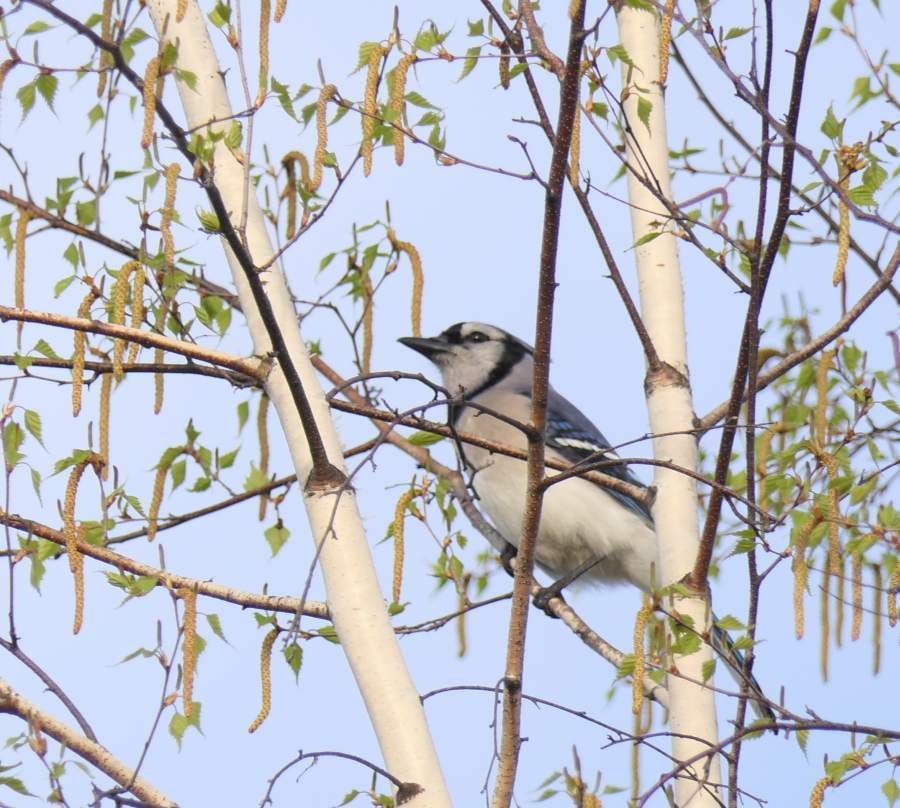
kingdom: Animalia
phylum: Chordata
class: Aves
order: Passeriformes
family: Corvidae
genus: Cyanocitta
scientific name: Cyanocitta cristata
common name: Blue jay
